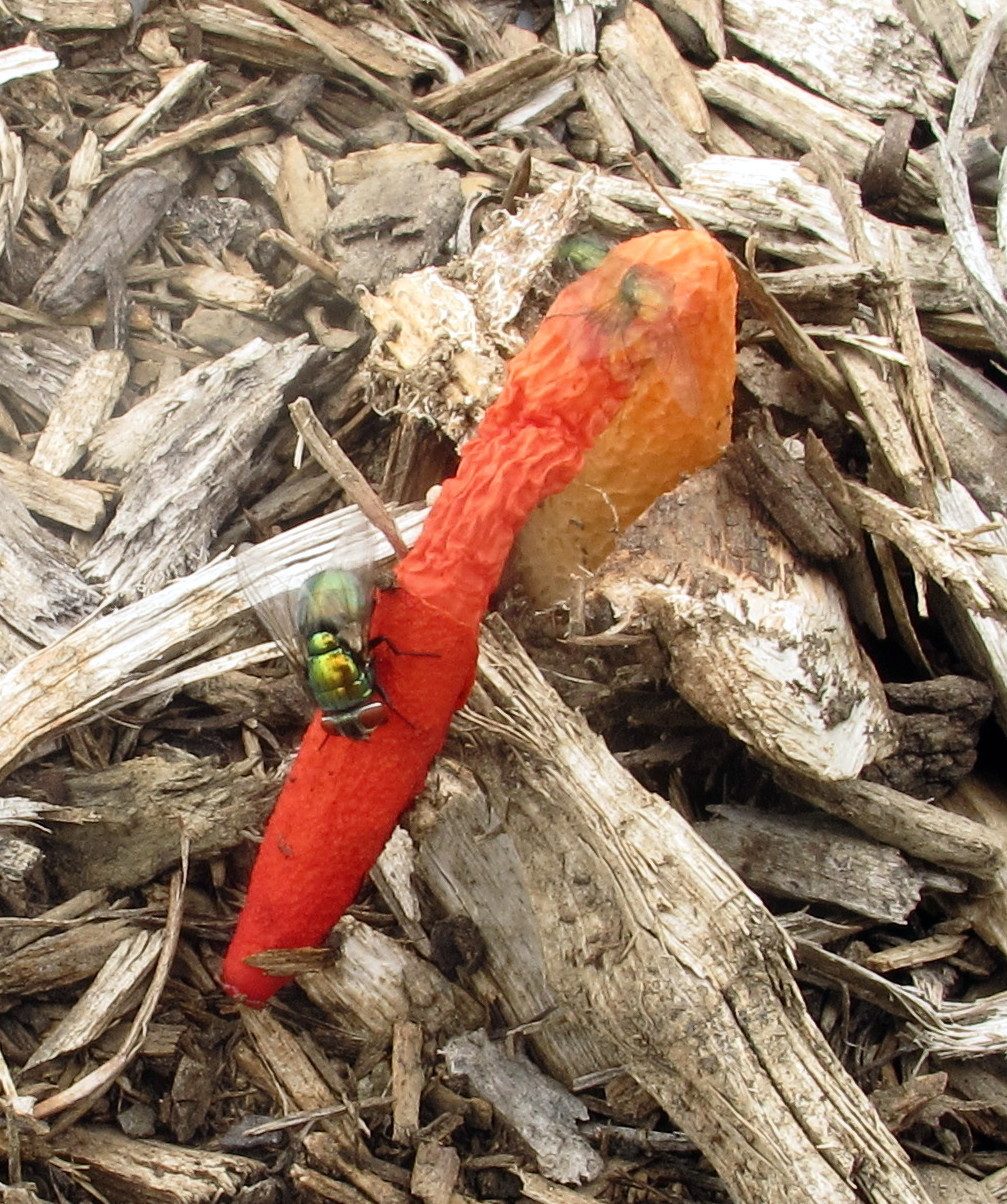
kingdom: Fungi
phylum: Basidiomycota
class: Agaricomycetes
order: Phallales
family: Phallaceae
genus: Phallus
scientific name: Phallus rugulosus
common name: Wrinkly stinkhorn
